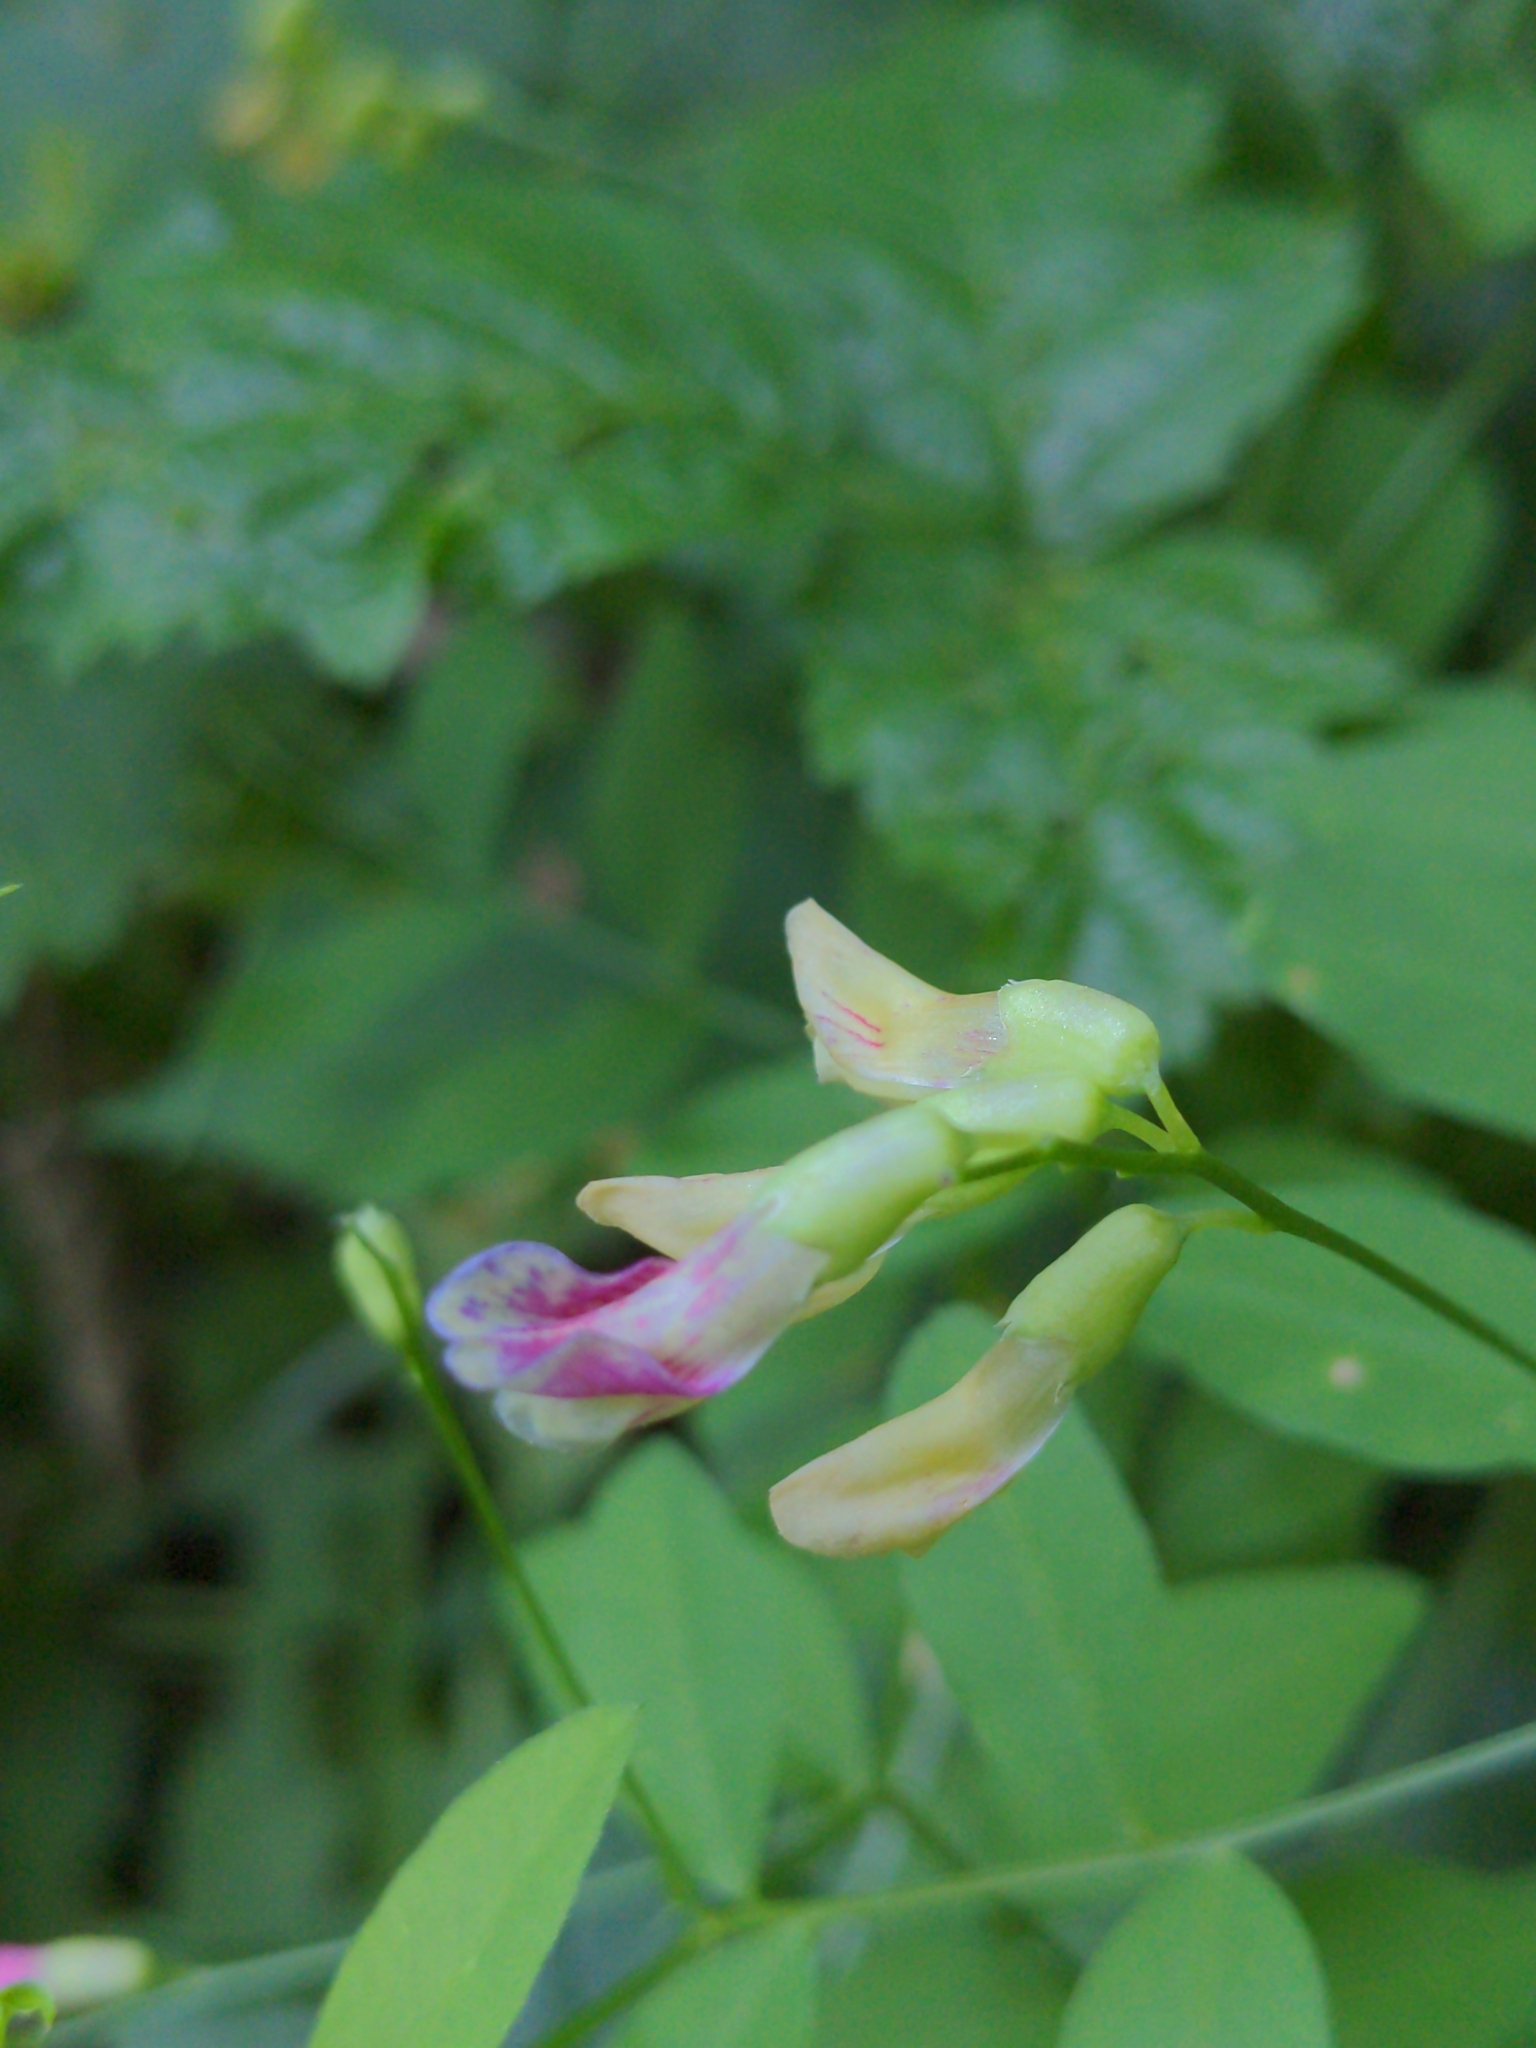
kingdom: Plantae
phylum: Tracheophyta
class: Magnoliopsida
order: Fabales
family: Fabaceae
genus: Vicia
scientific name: Vicia dumetorum
